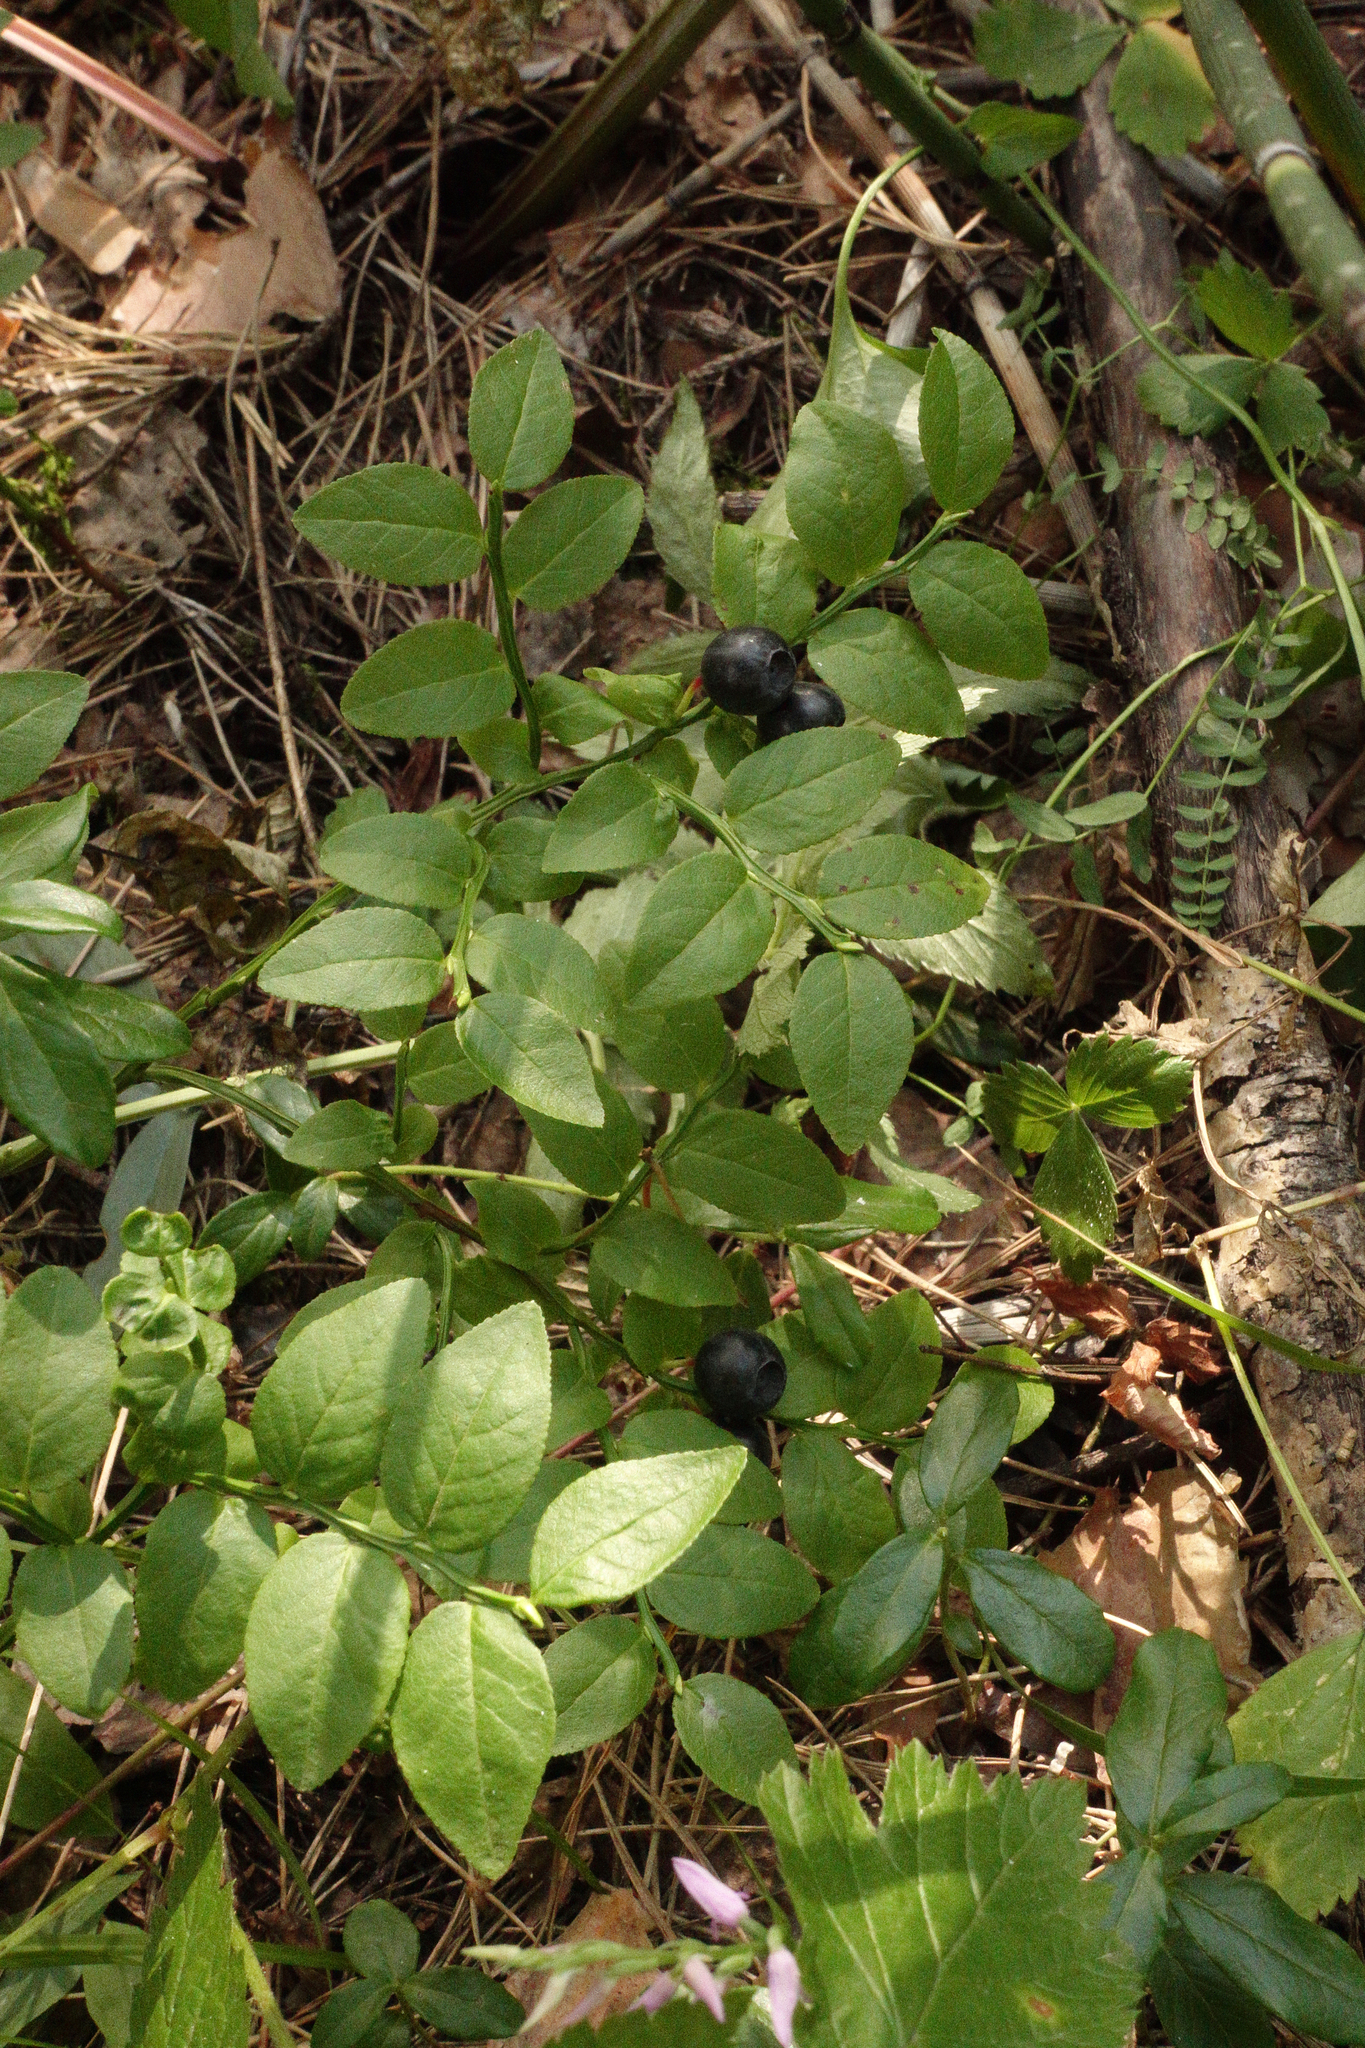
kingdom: Plantae
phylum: Tracheophyta
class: Magnoliopsida
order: Ericales
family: Ericaceae
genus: Vaccinium
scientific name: Vaccinium myrtillus
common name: Bilberry
